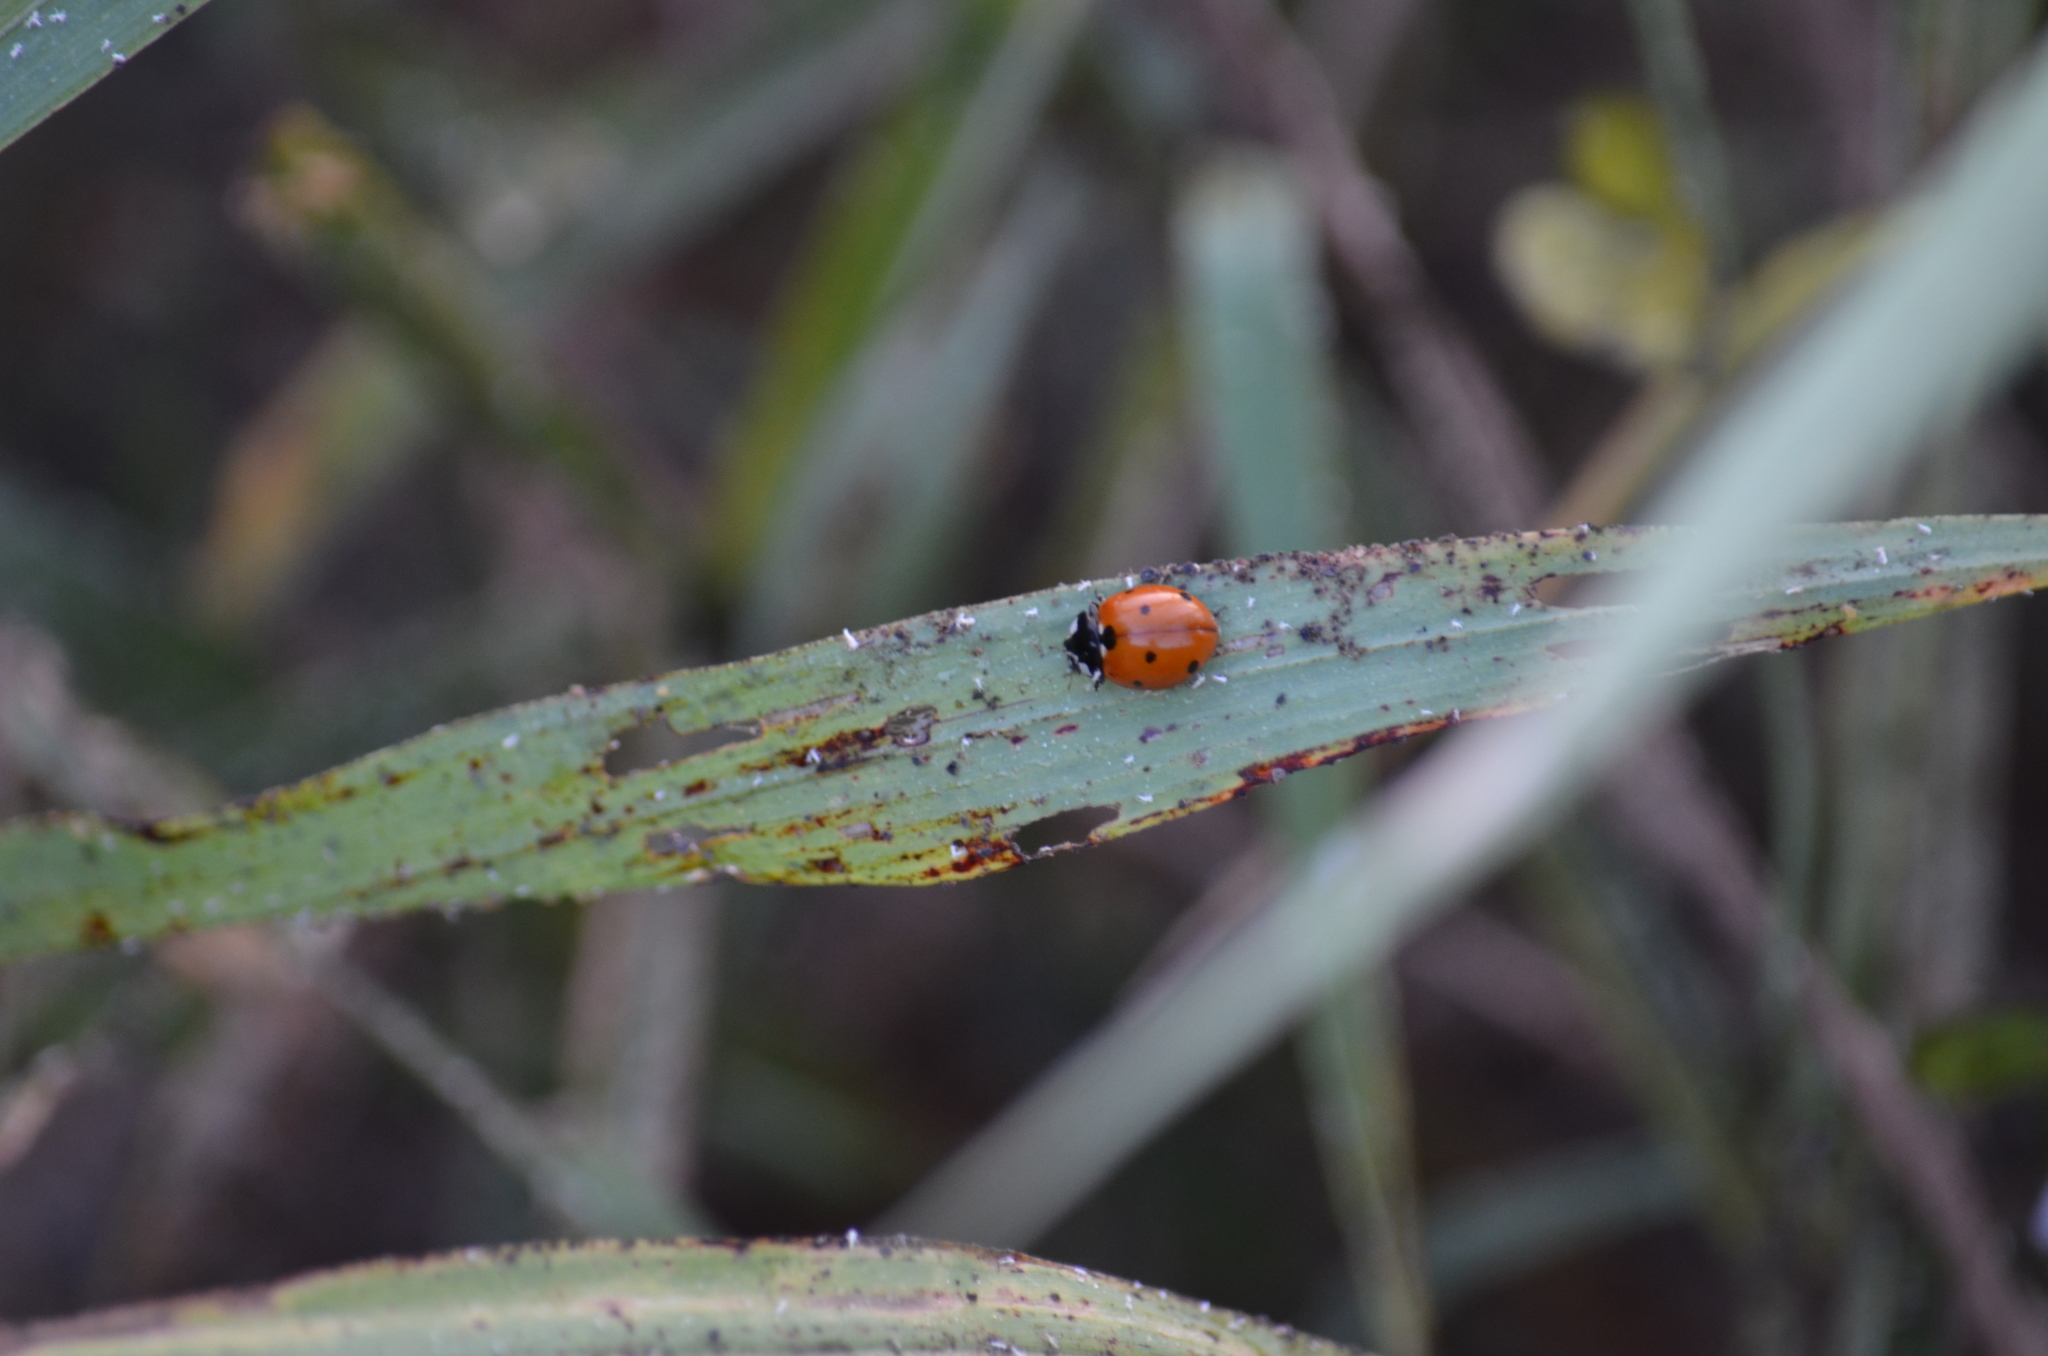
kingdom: Animalia
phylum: Arthropoda
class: Insecta
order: Coleoptera
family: Coccinellidae
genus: Coccinella
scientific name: Coccinella septempunctata
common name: Sevenspotted lady beetle
